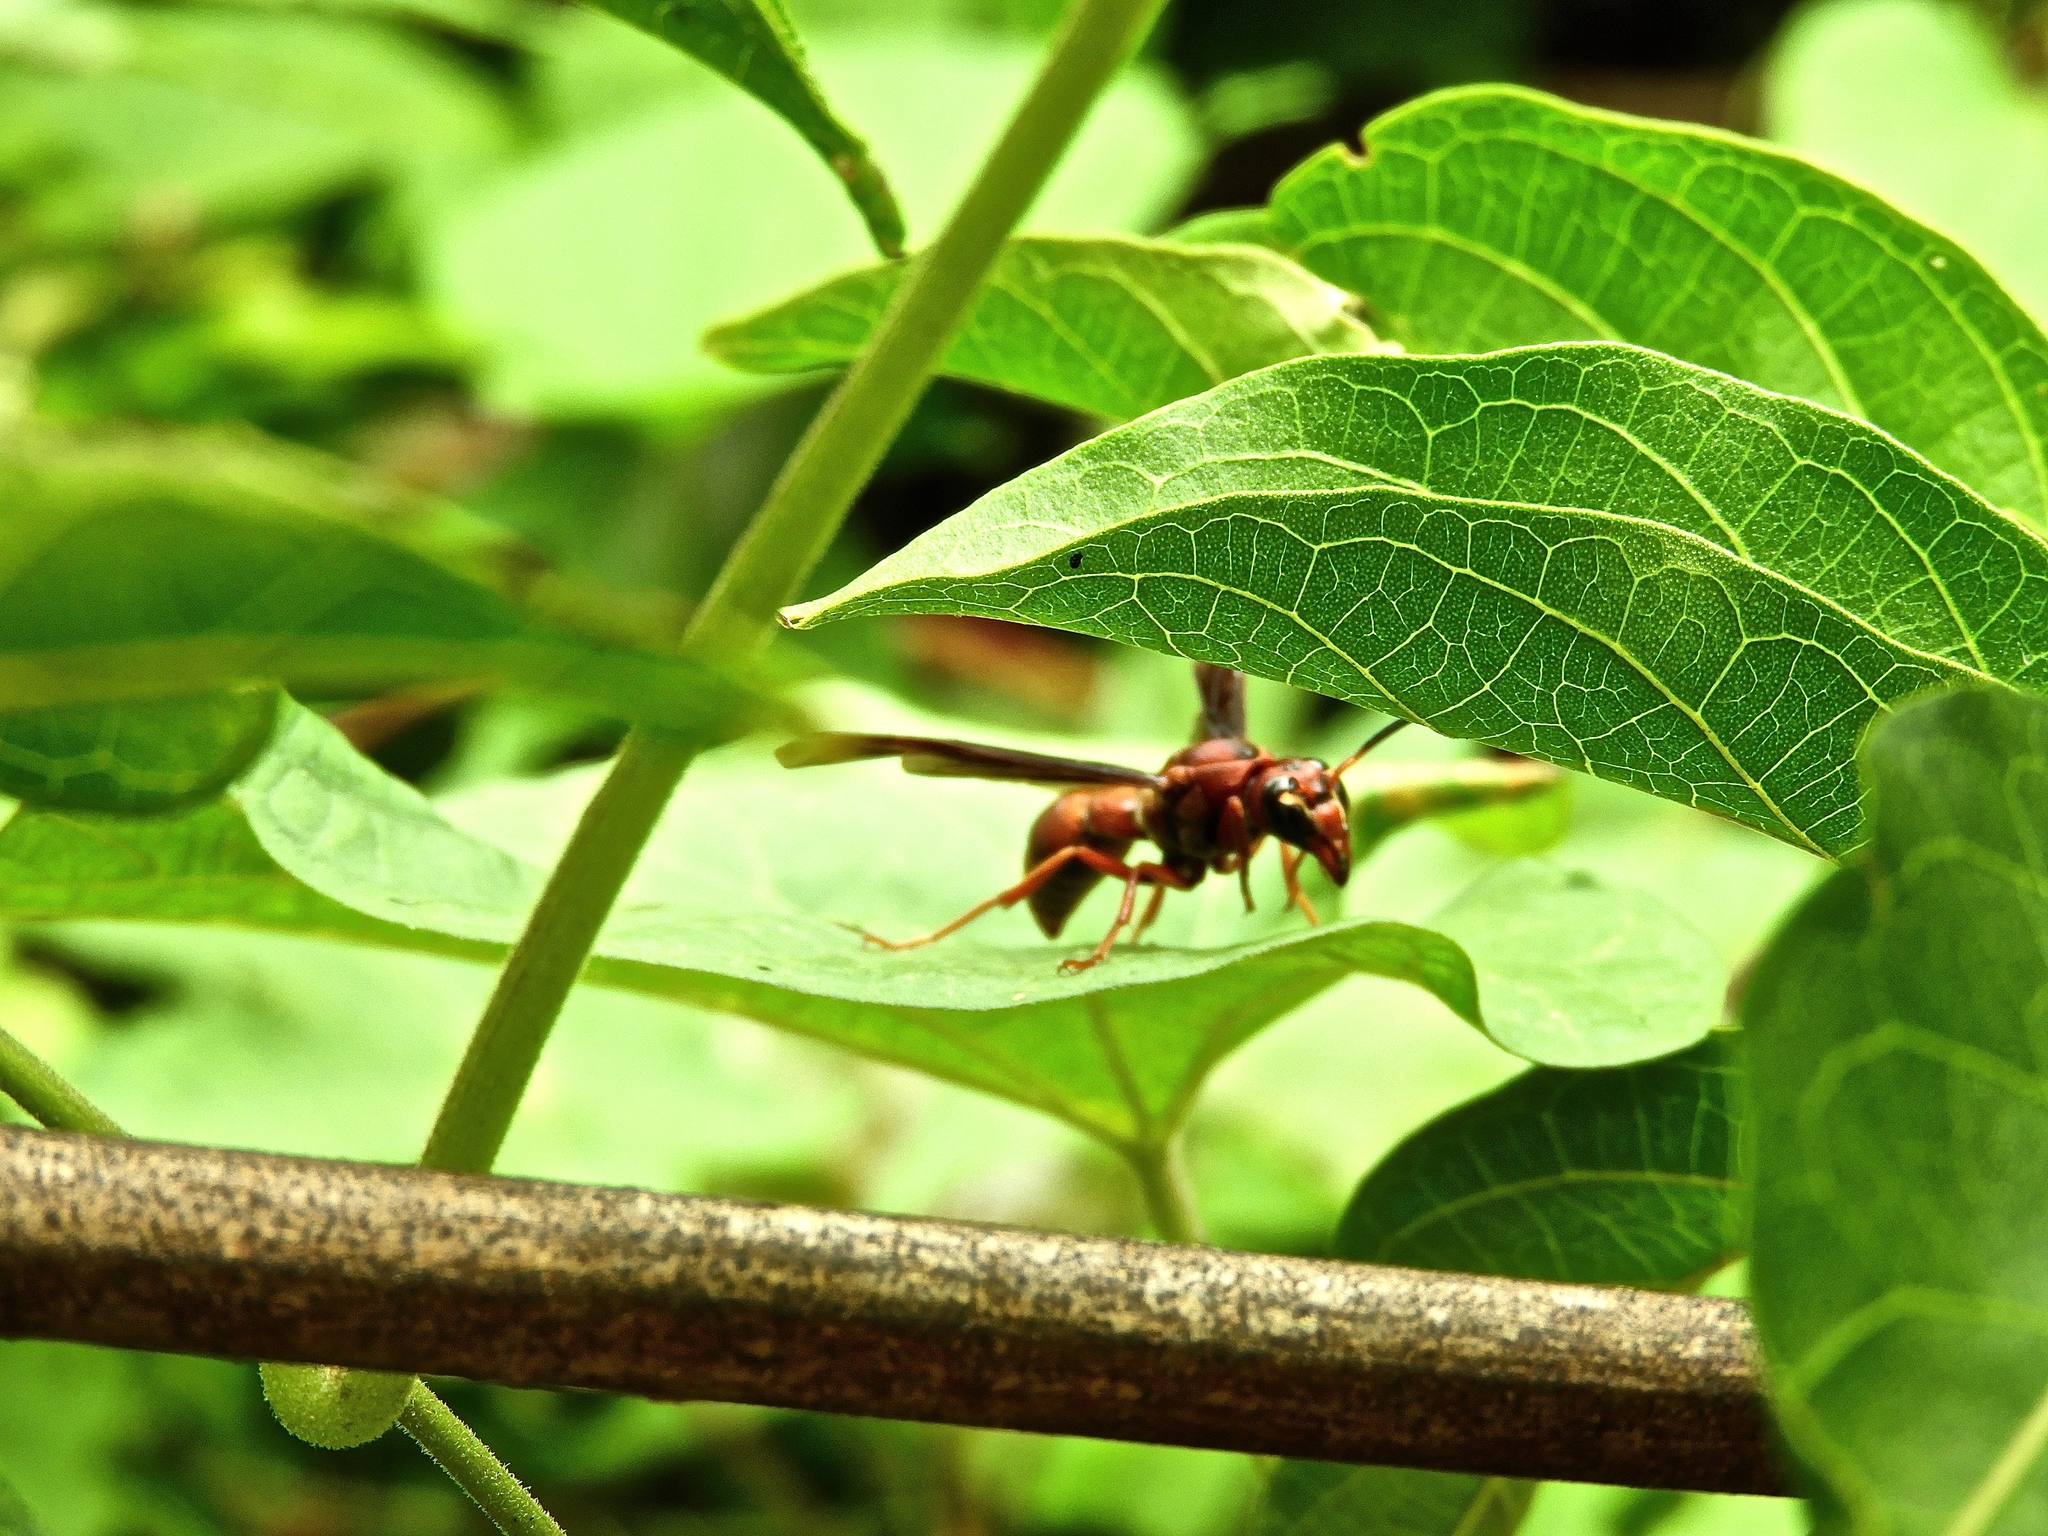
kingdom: Animalia
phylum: Arthropoda
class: Insecta
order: Hymenoptera
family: Eumenidae
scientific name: Eumenidae
